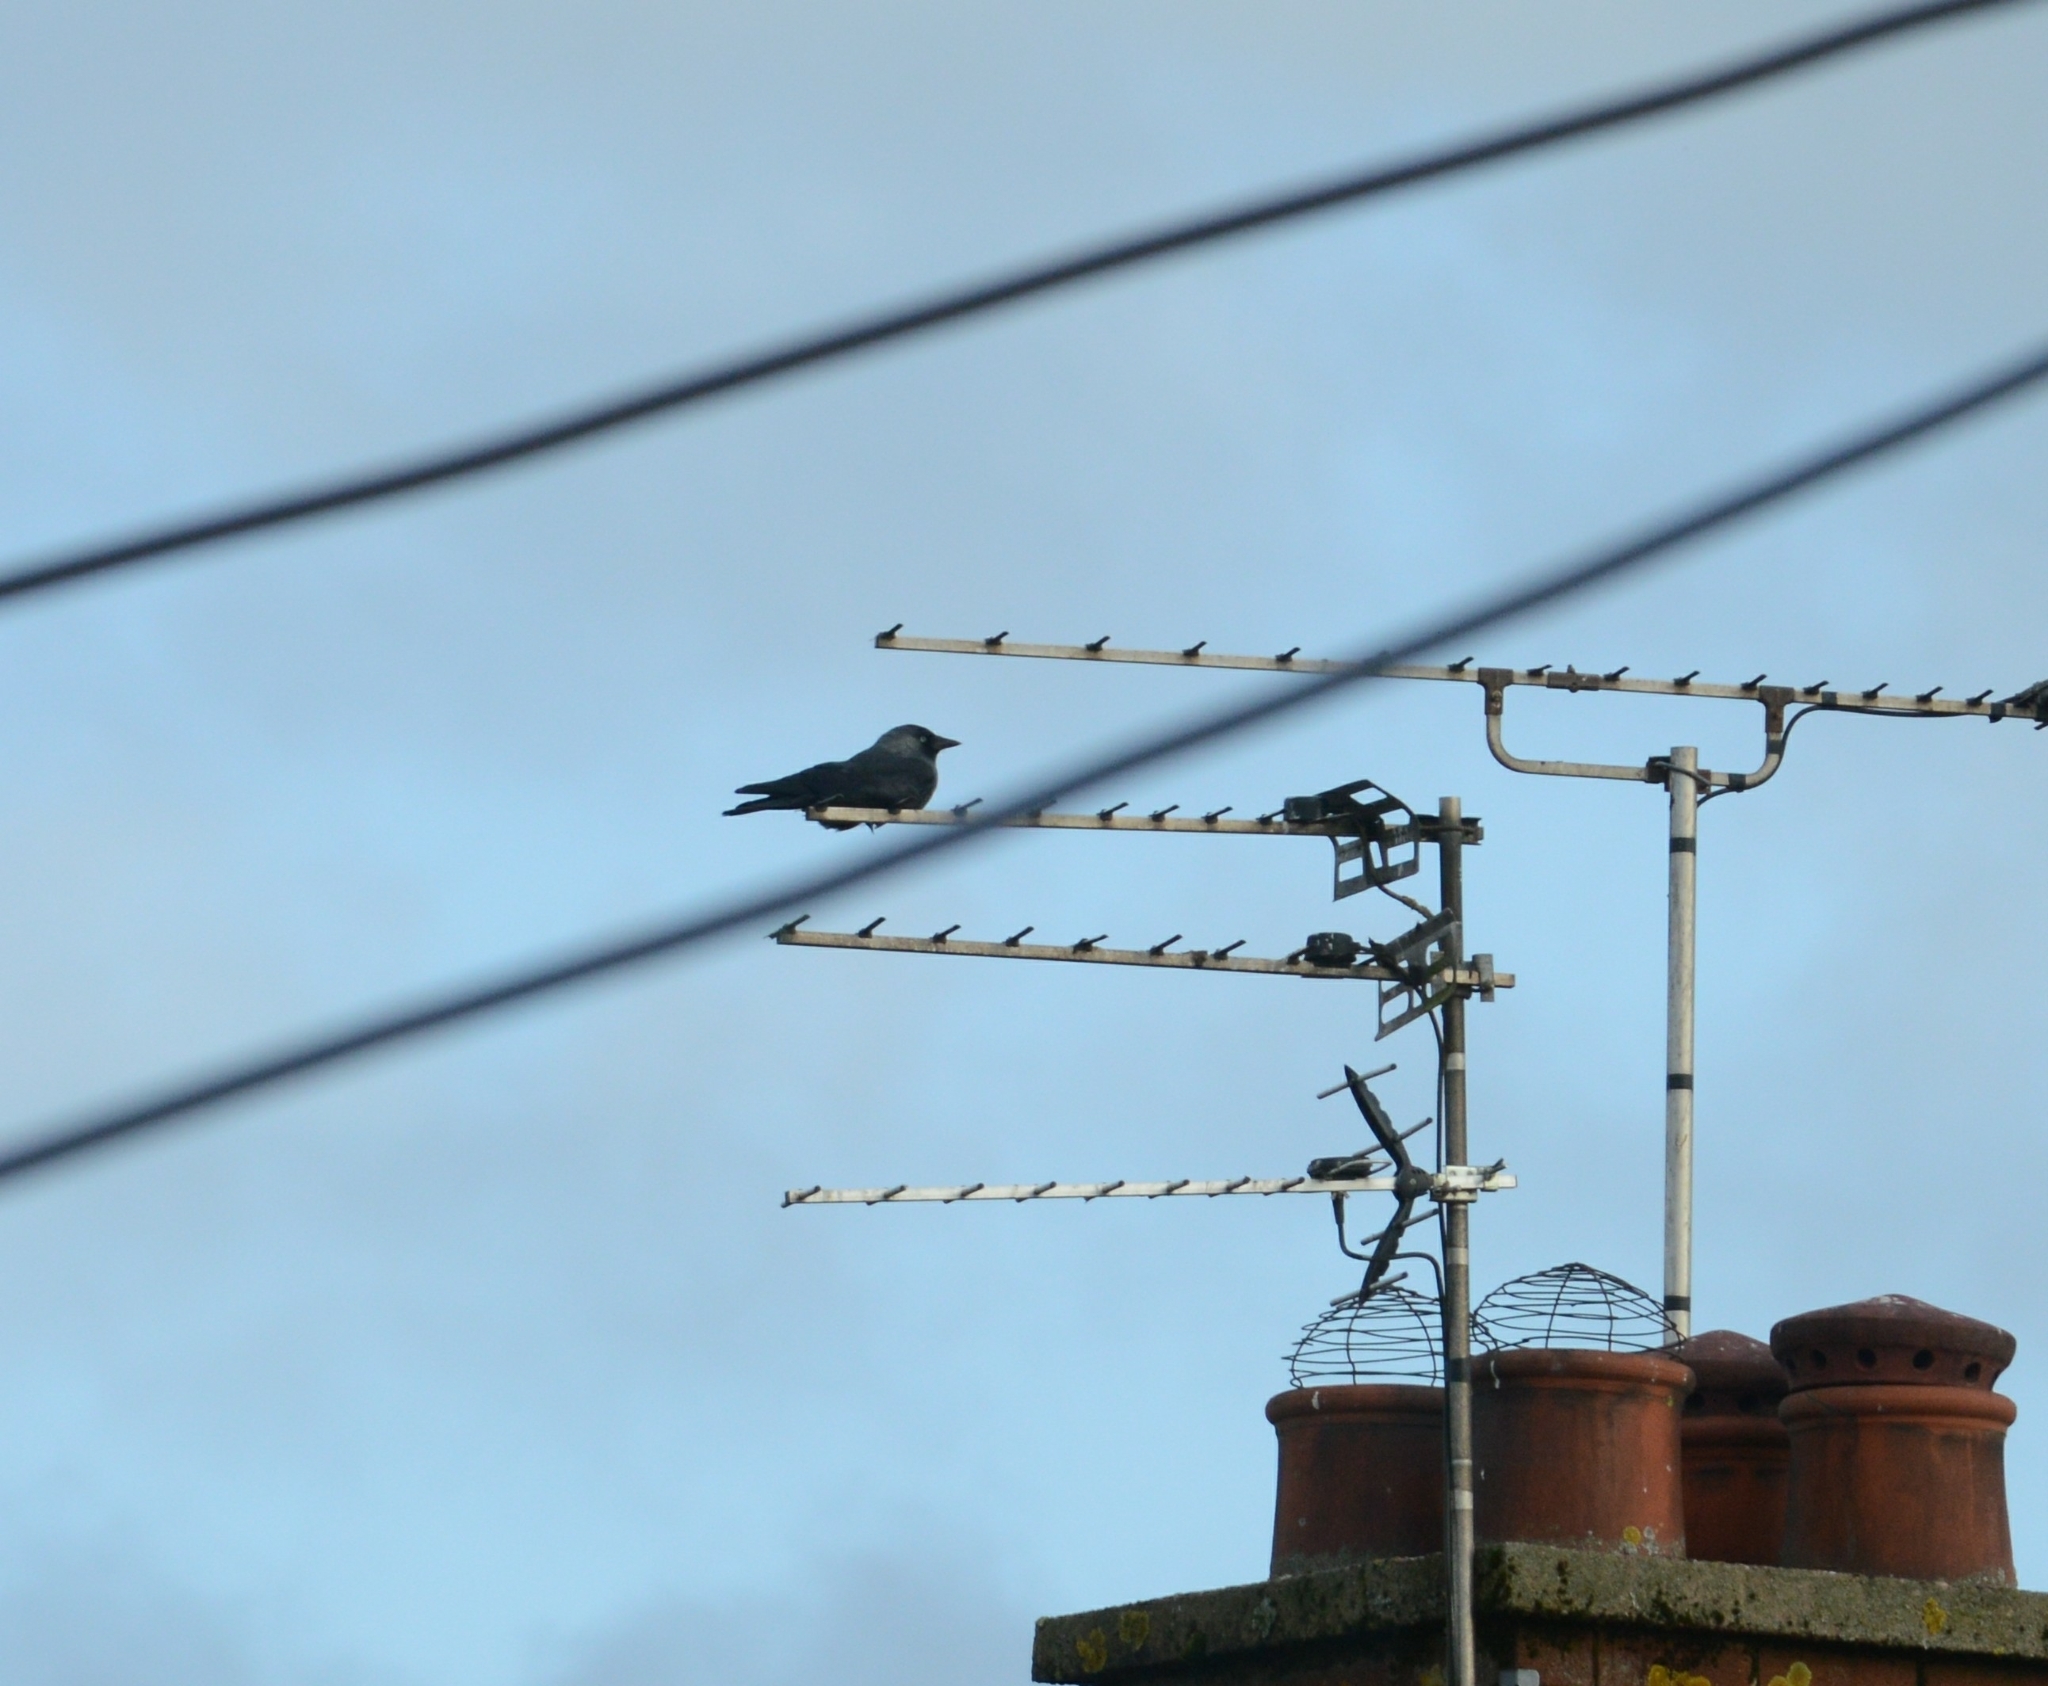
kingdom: Animalia
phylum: Chordata
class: Aves
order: Passeriformes
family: Corvidae
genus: Coloeus
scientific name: Coloeus monedula
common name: Western jackdaw
